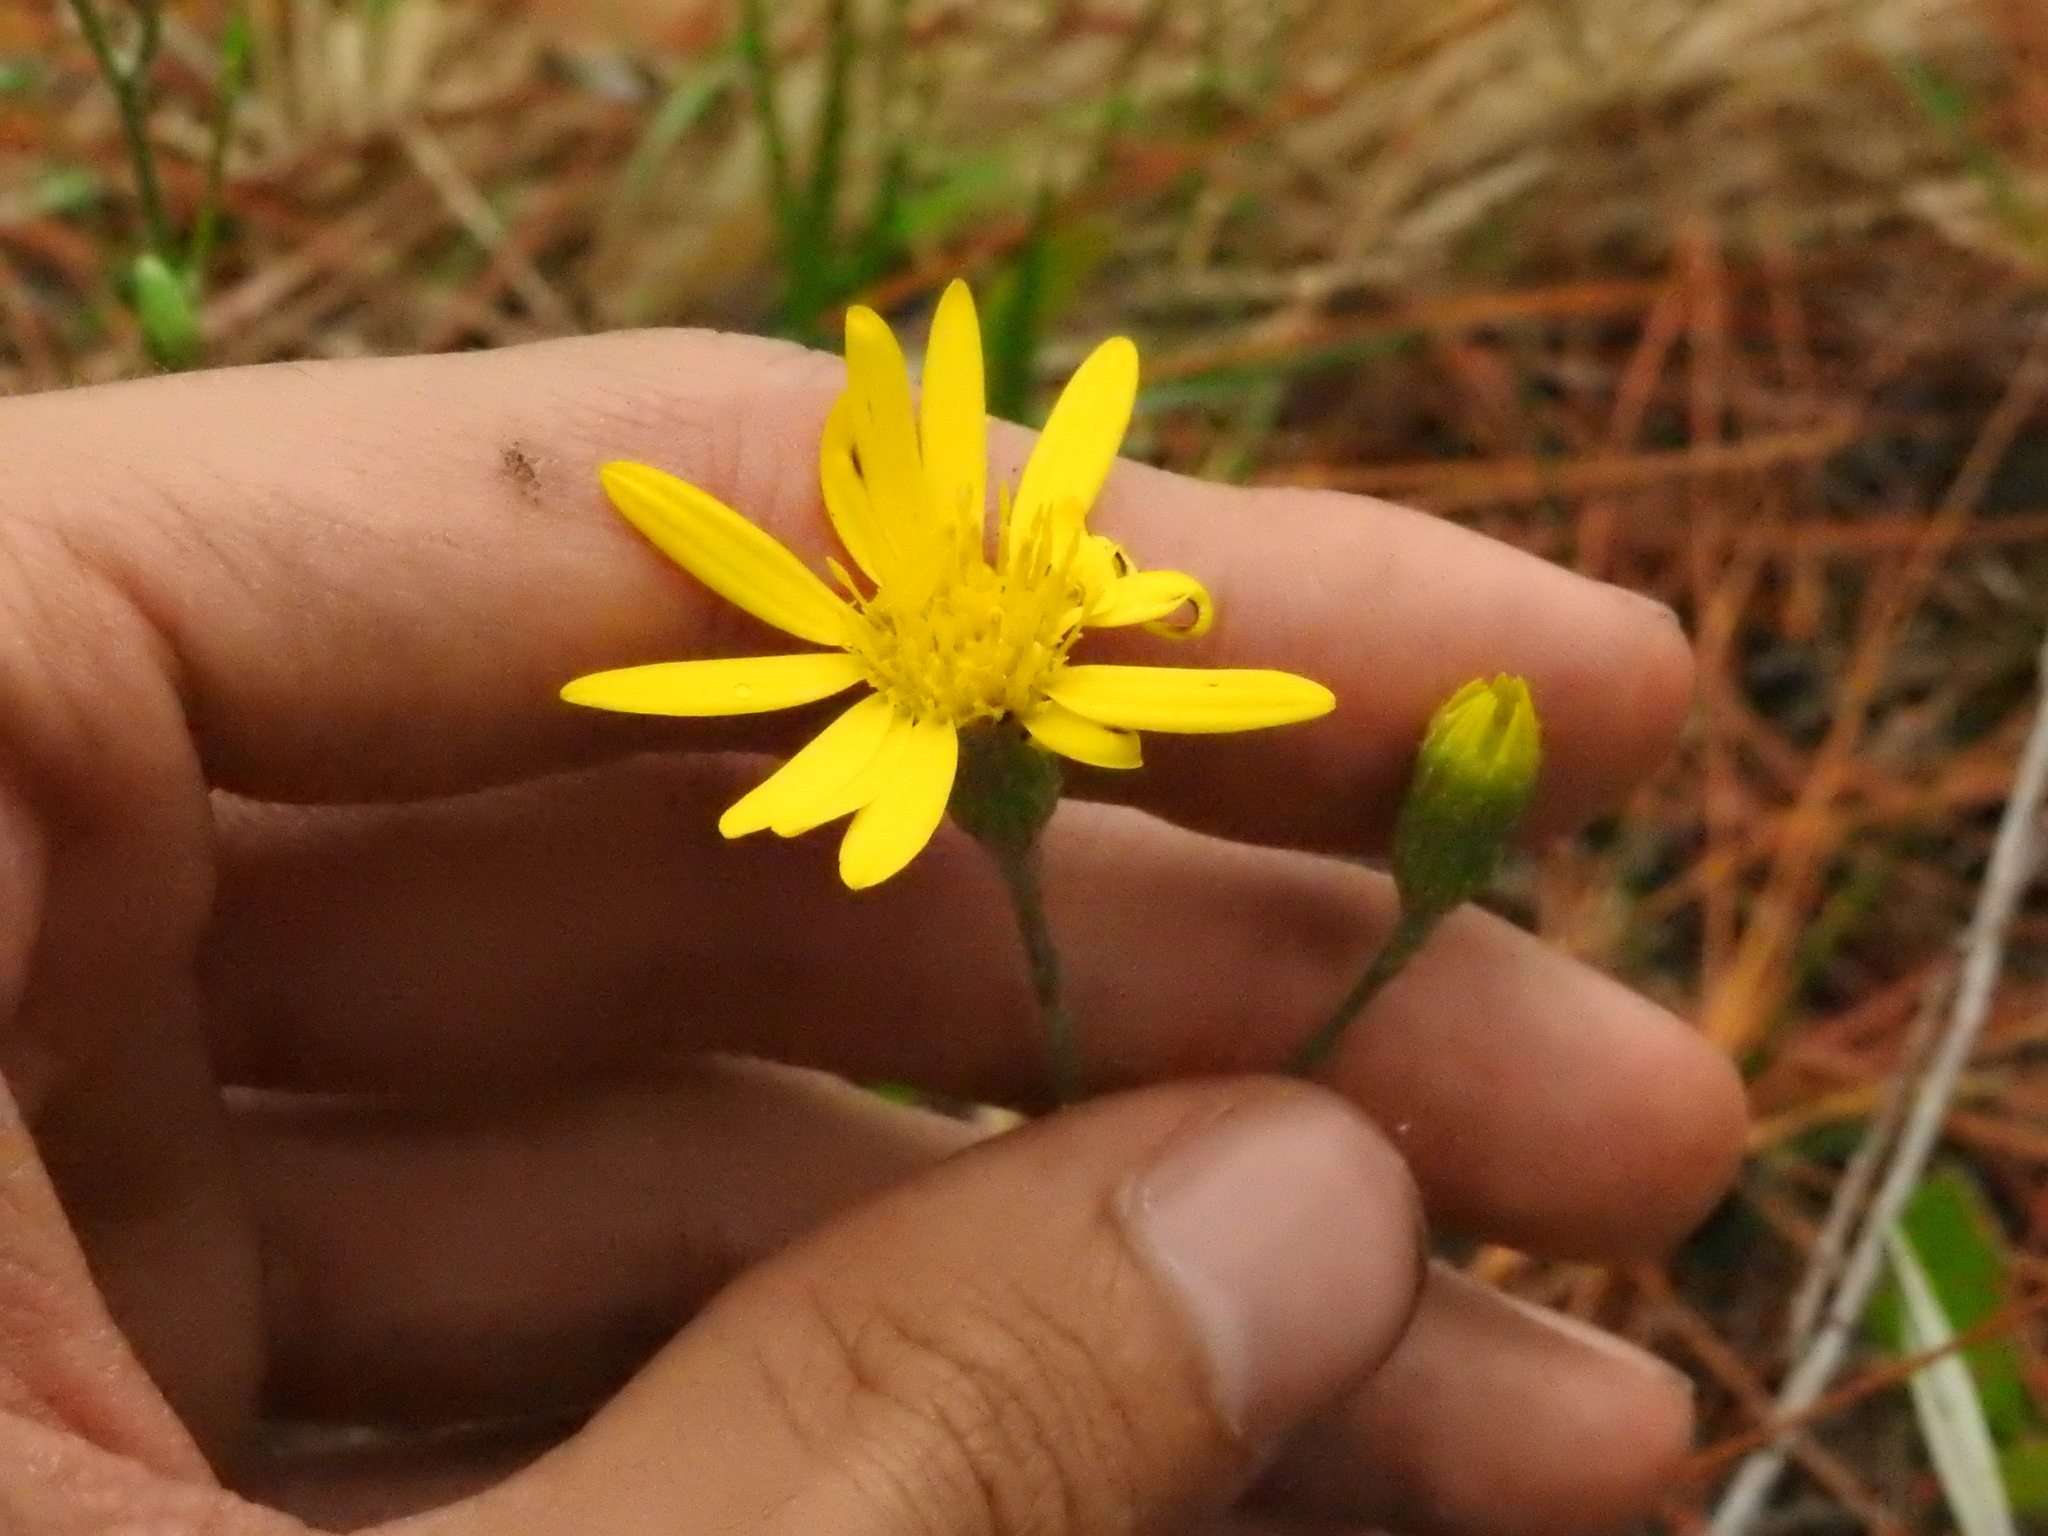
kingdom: Plantae
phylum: Tracheophyta
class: Magnoliopsida
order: Asterales
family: Asteraceae
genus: Pityopsis
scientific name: Pityopsis tracyi
